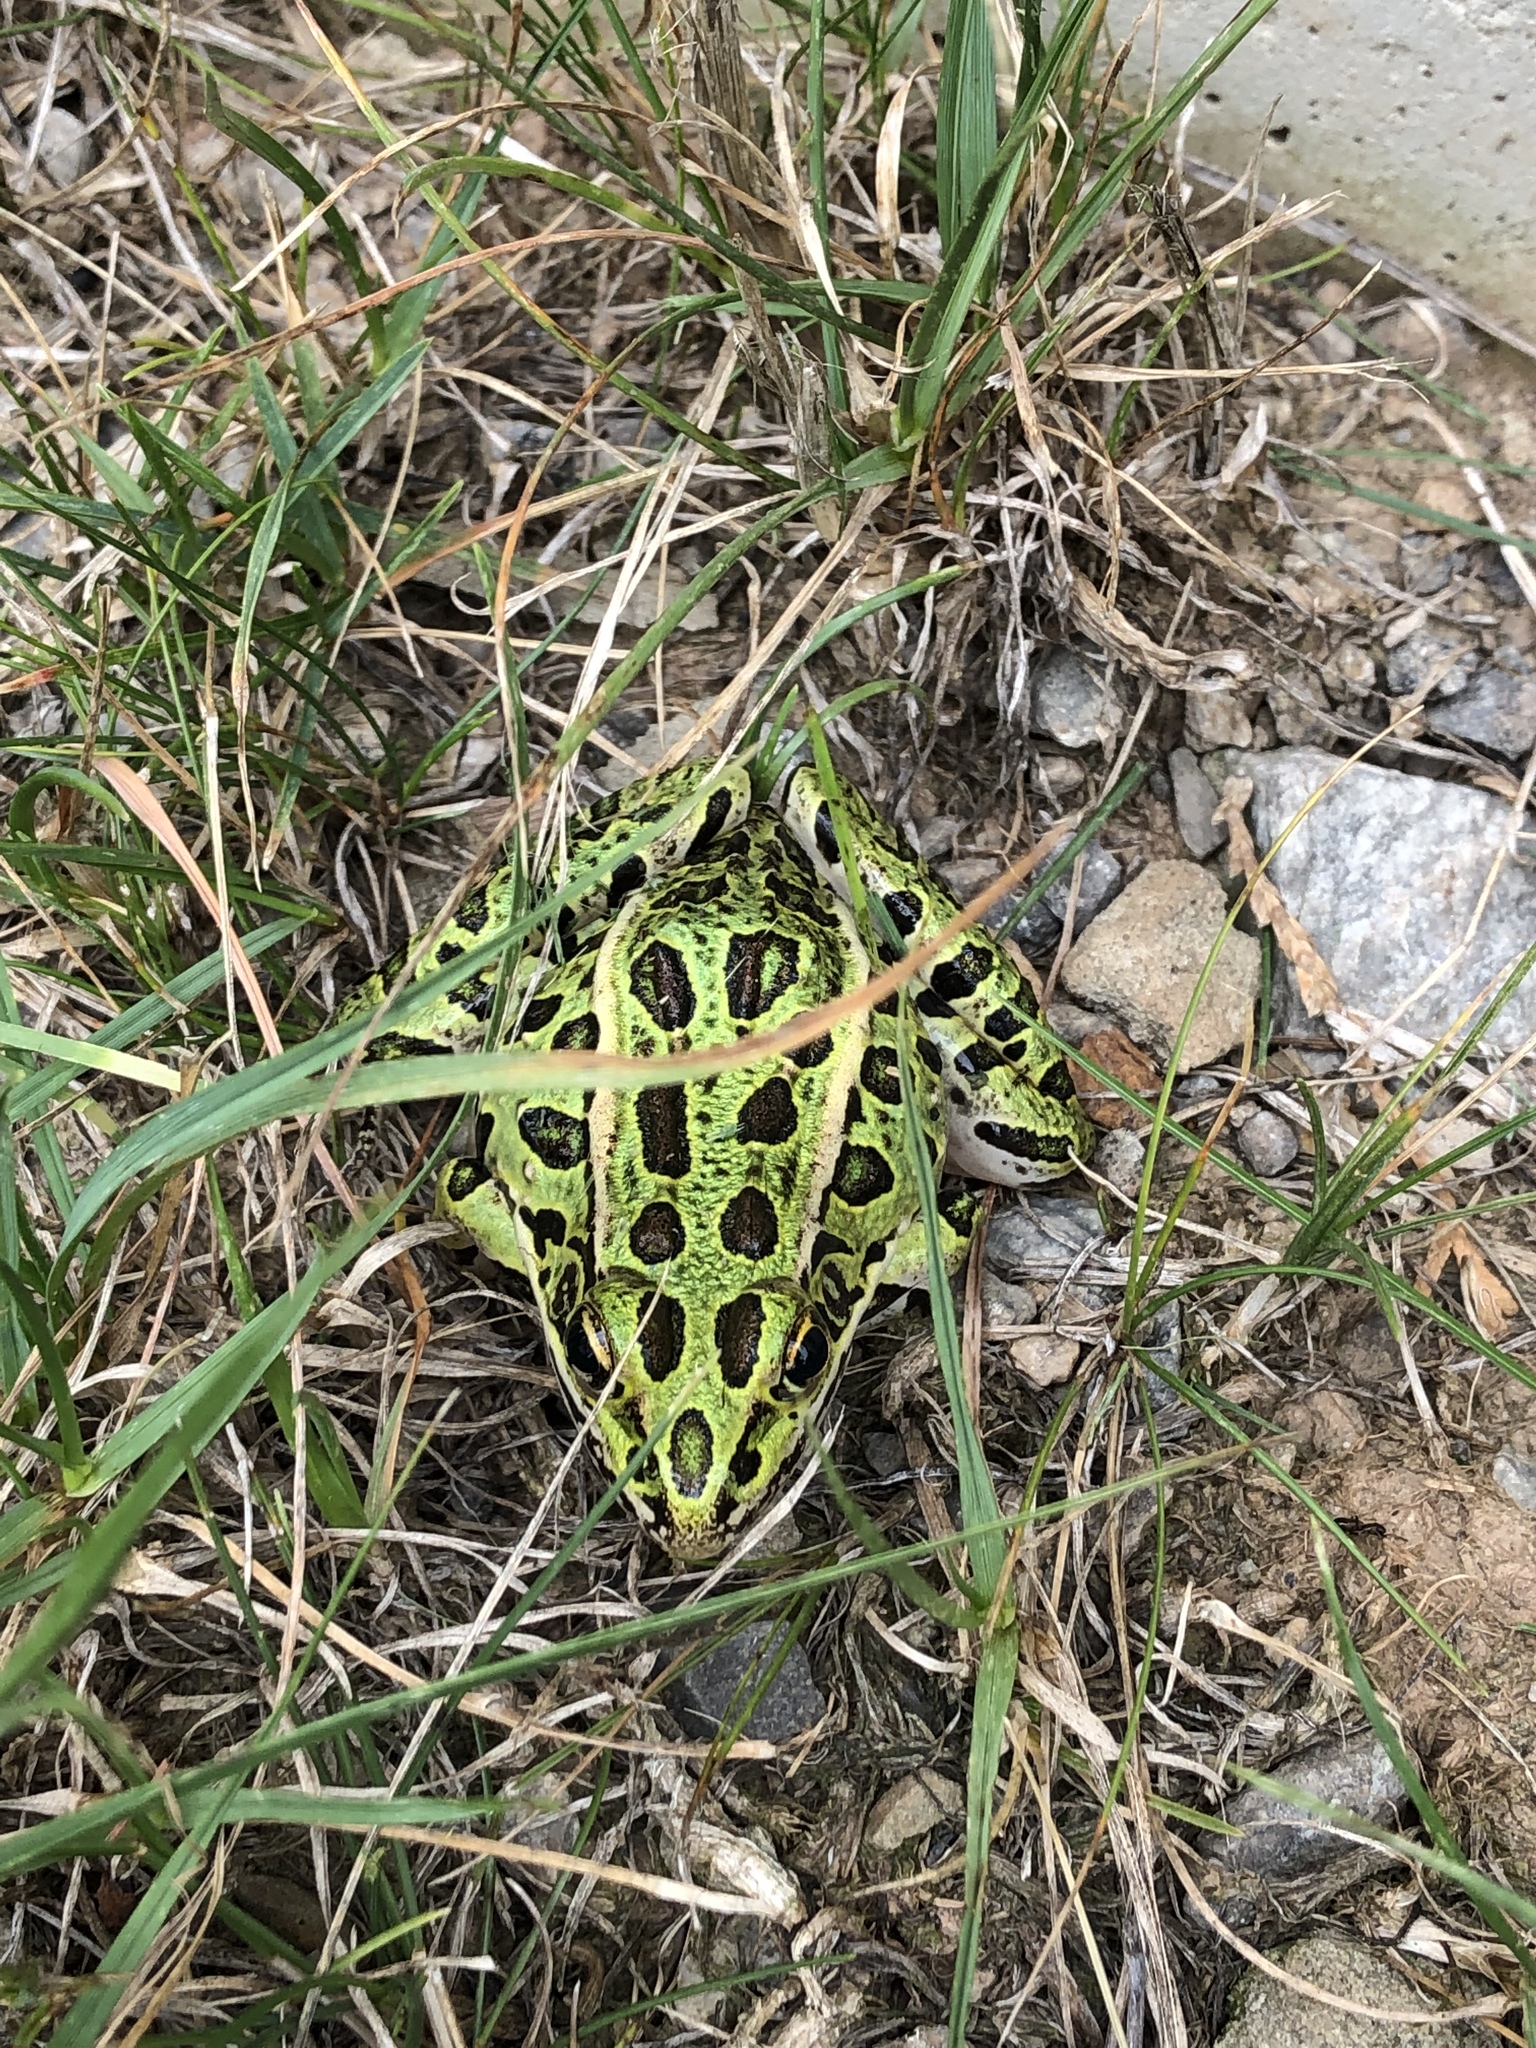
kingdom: Animalia
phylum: Chordata
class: Amphibia
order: Anura
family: Ranidae
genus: Lithobates
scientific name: Lithobates pipiens
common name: Northern leopard frog
